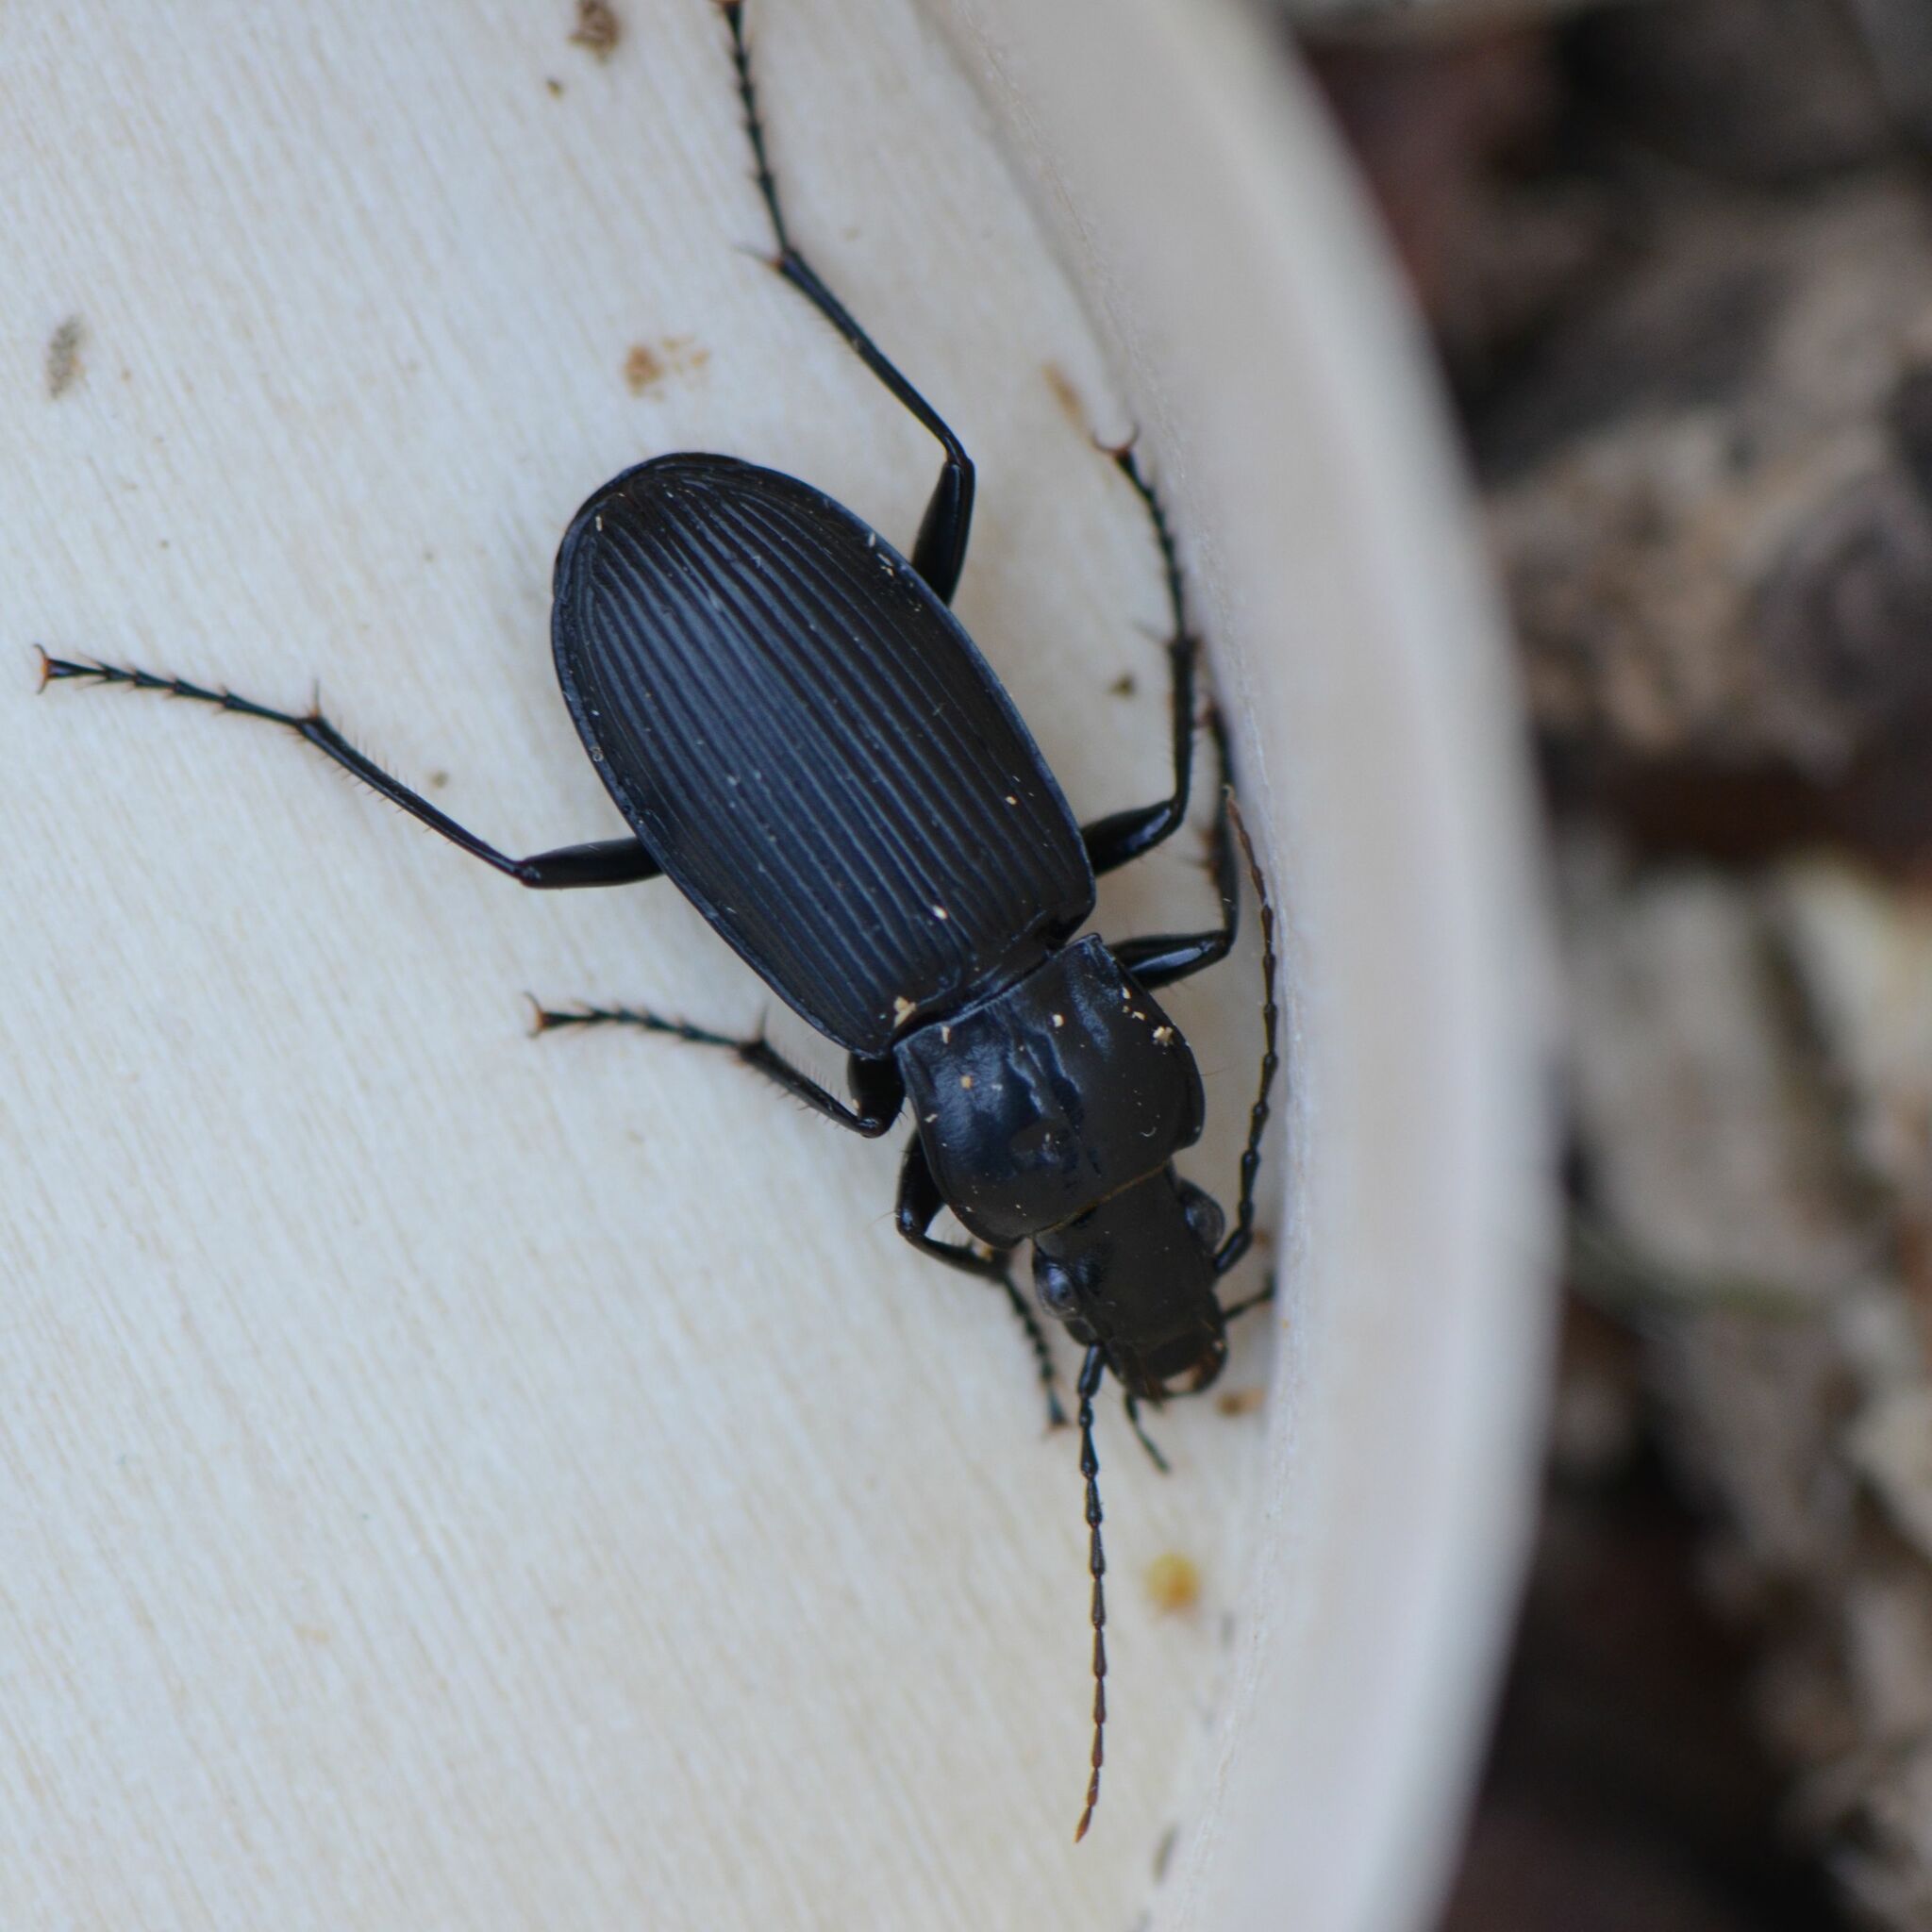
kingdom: Animalia
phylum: Arthropoda
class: Insecta
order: Coleoptera
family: Carabidae
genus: Pterostichus
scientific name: Pterostichus niger
